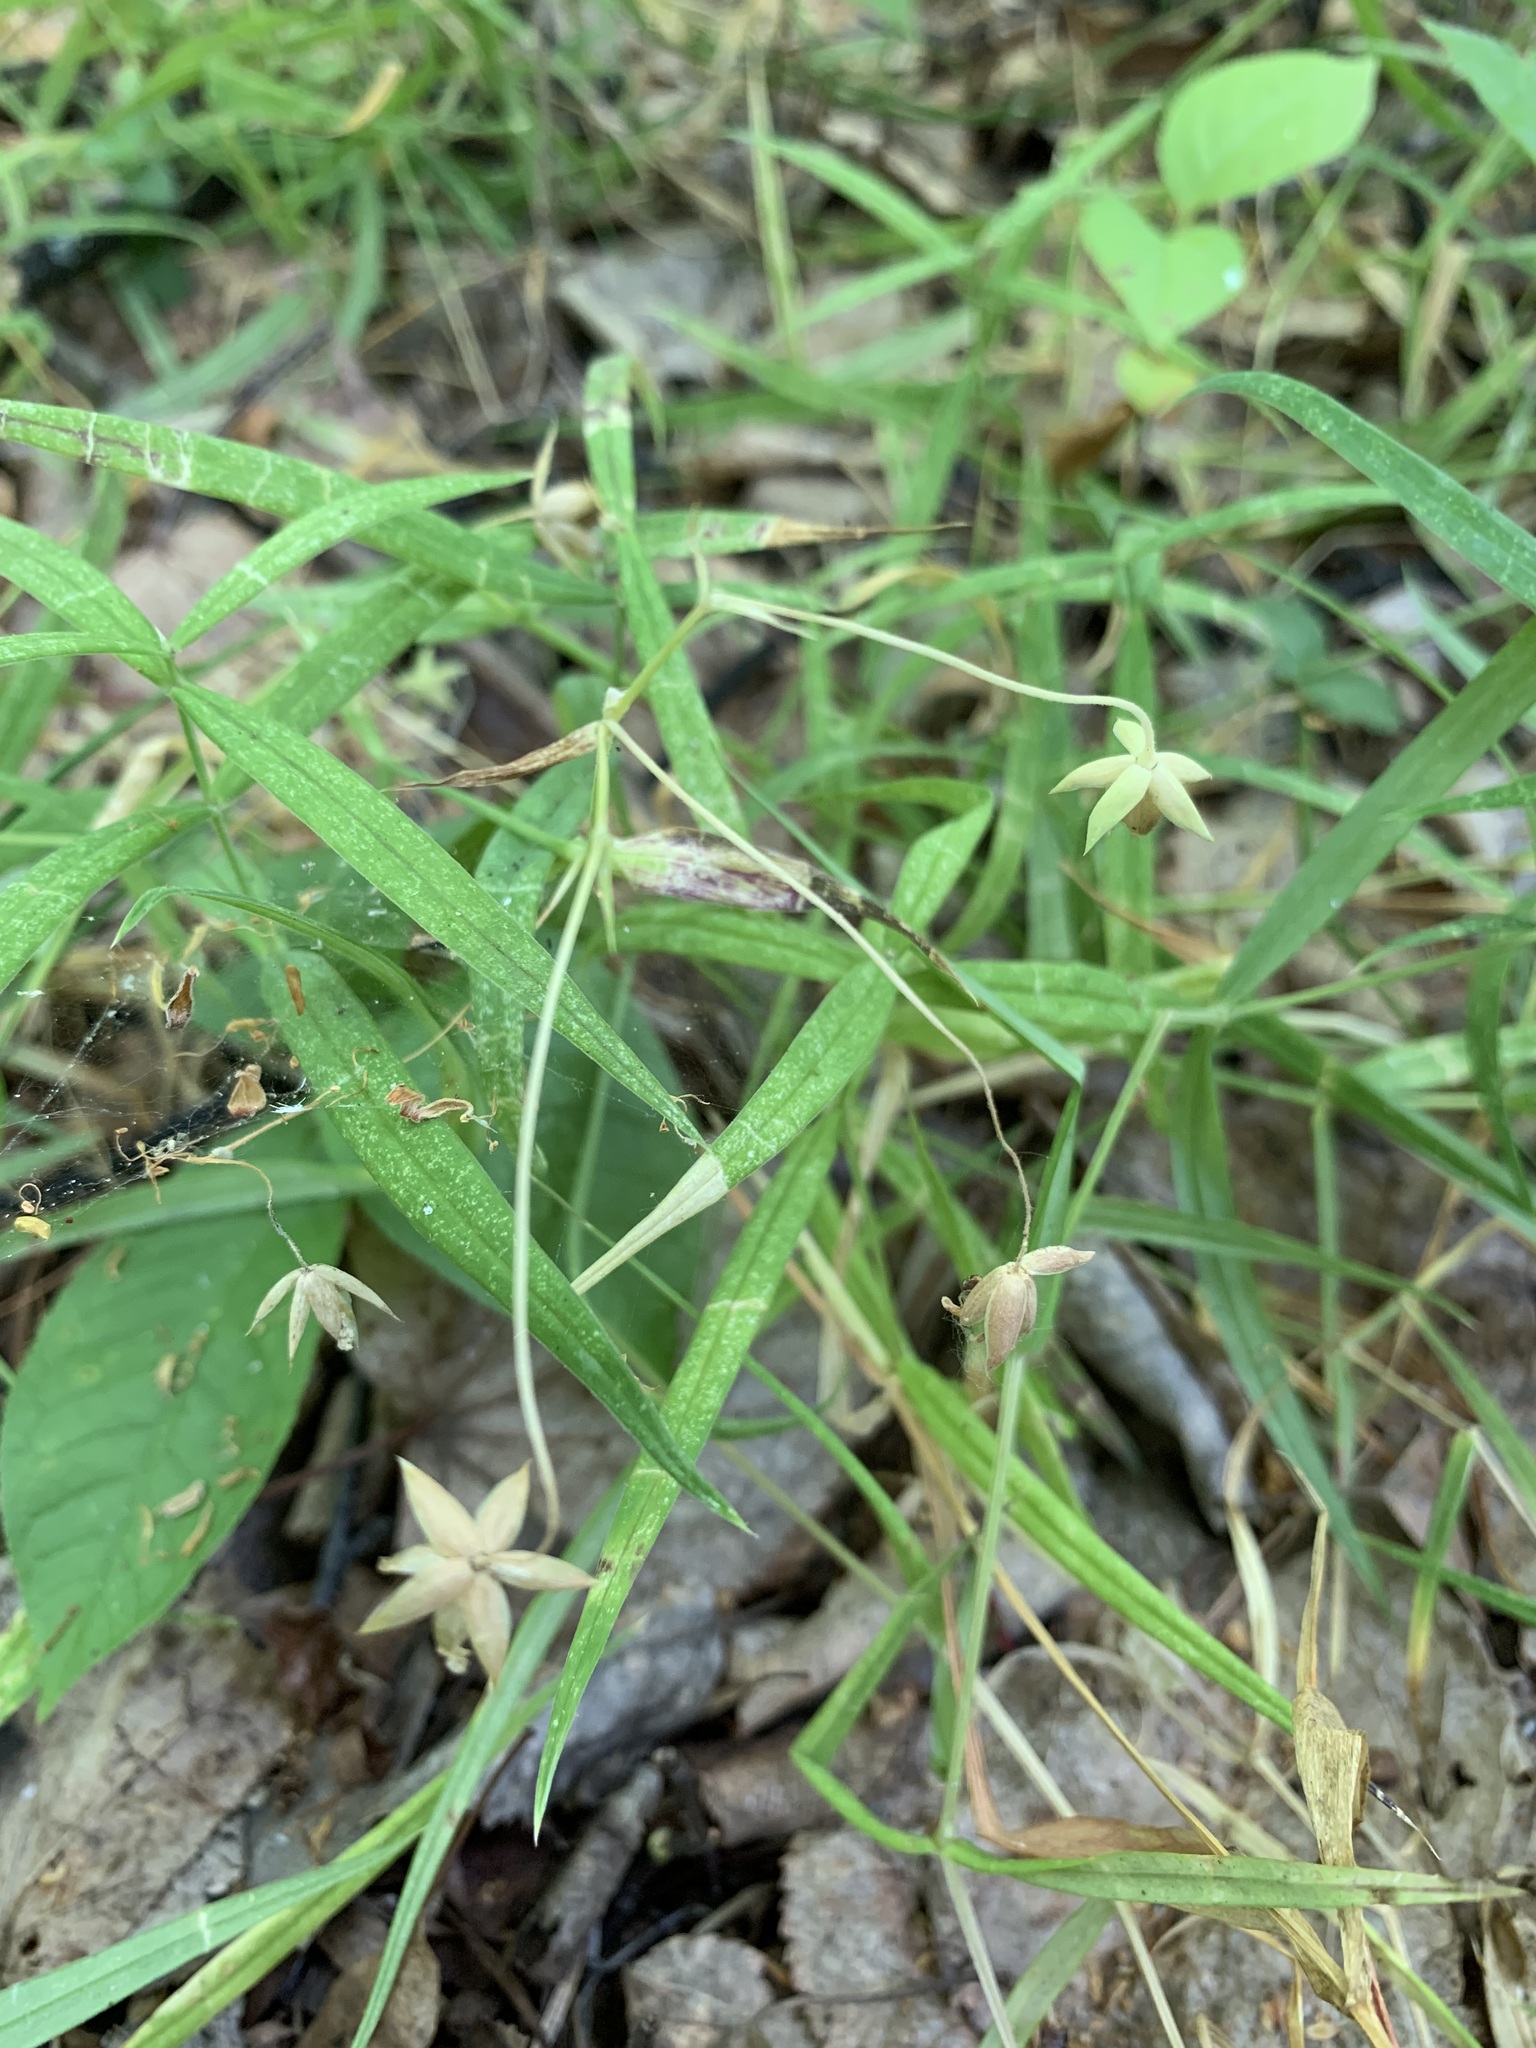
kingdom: Plantae
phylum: Tracheophyta
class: Magnoliopsida
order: Caryophyllales
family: Caryophyllaceae
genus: Rabelera
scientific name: Rabelera holostea
